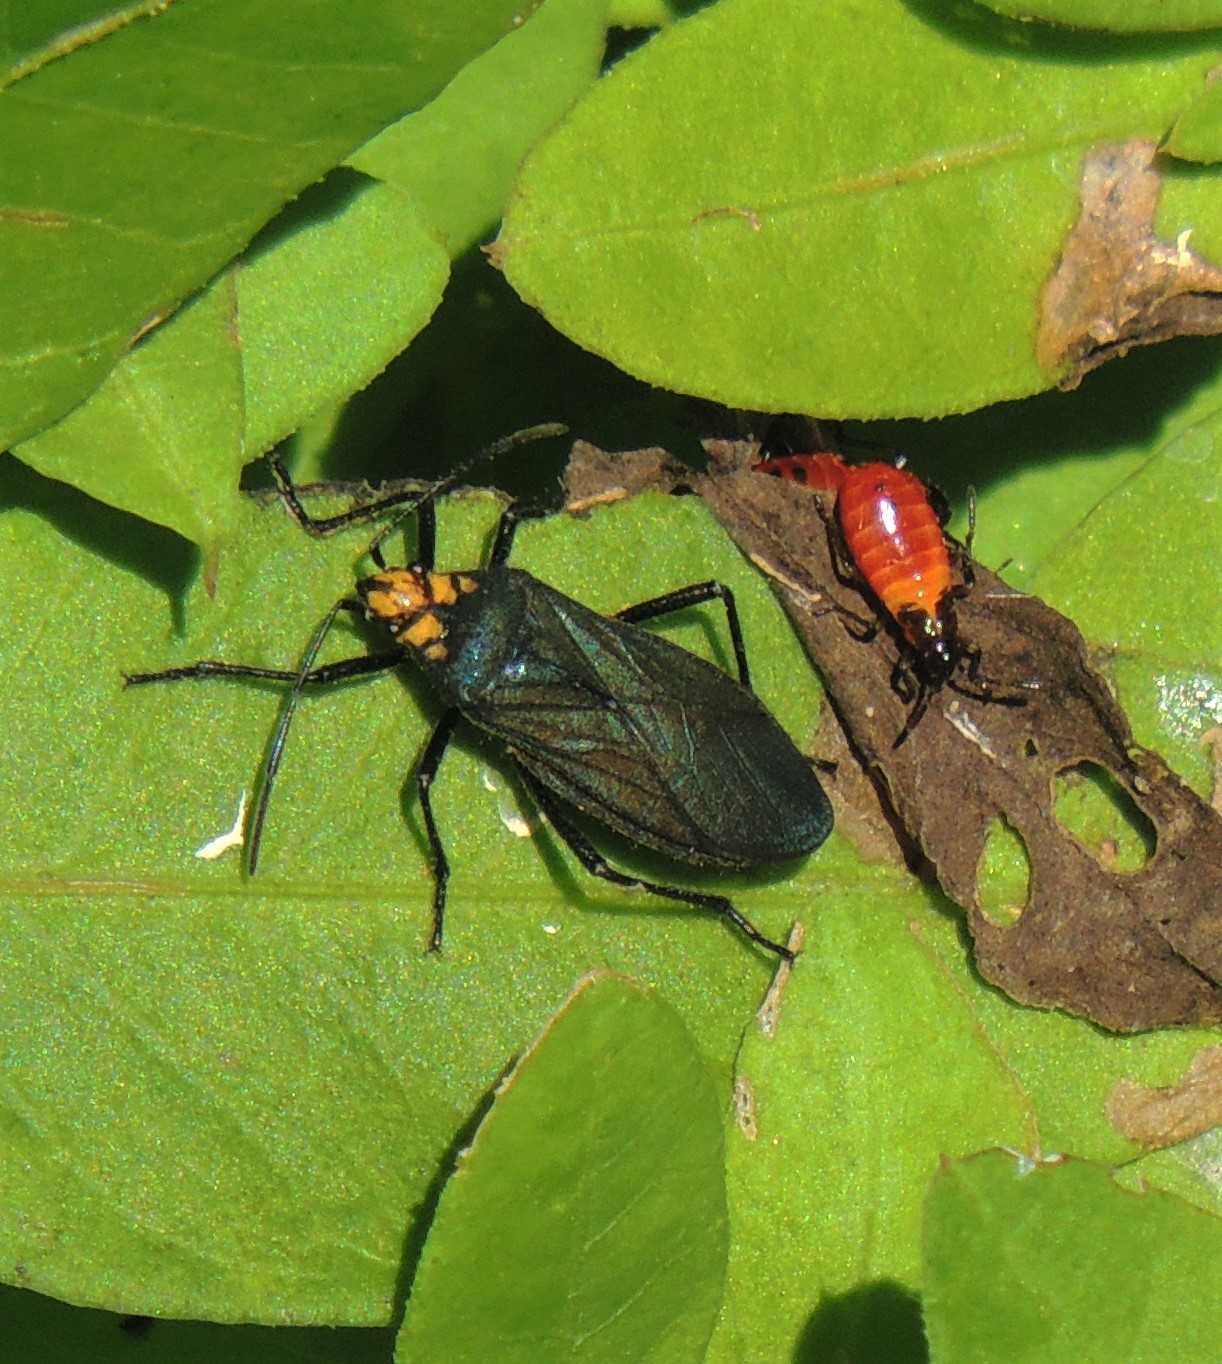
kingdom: Animalia
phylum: Arthropoda
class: Insecta
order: Hemiptera
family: Lygaeidae
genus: Oncopeltus
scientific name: Oncopeltus luctuosus
